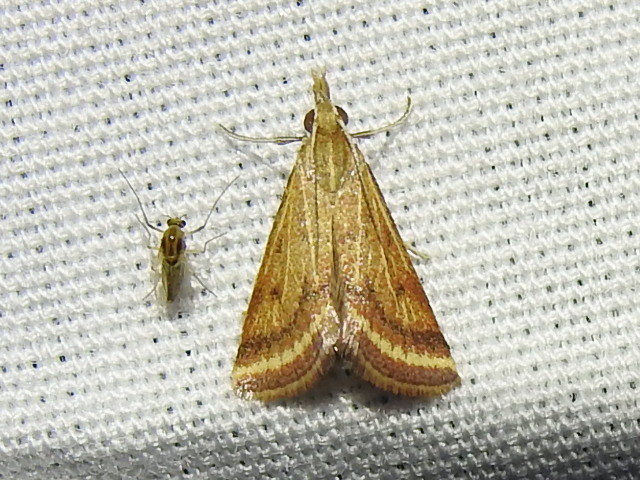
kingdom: Animalia
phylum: Arthropoda
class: Insecta
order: Lepidoptera
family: Crambidae
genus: Microtheoris
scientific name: Microtheoris ophionalis
